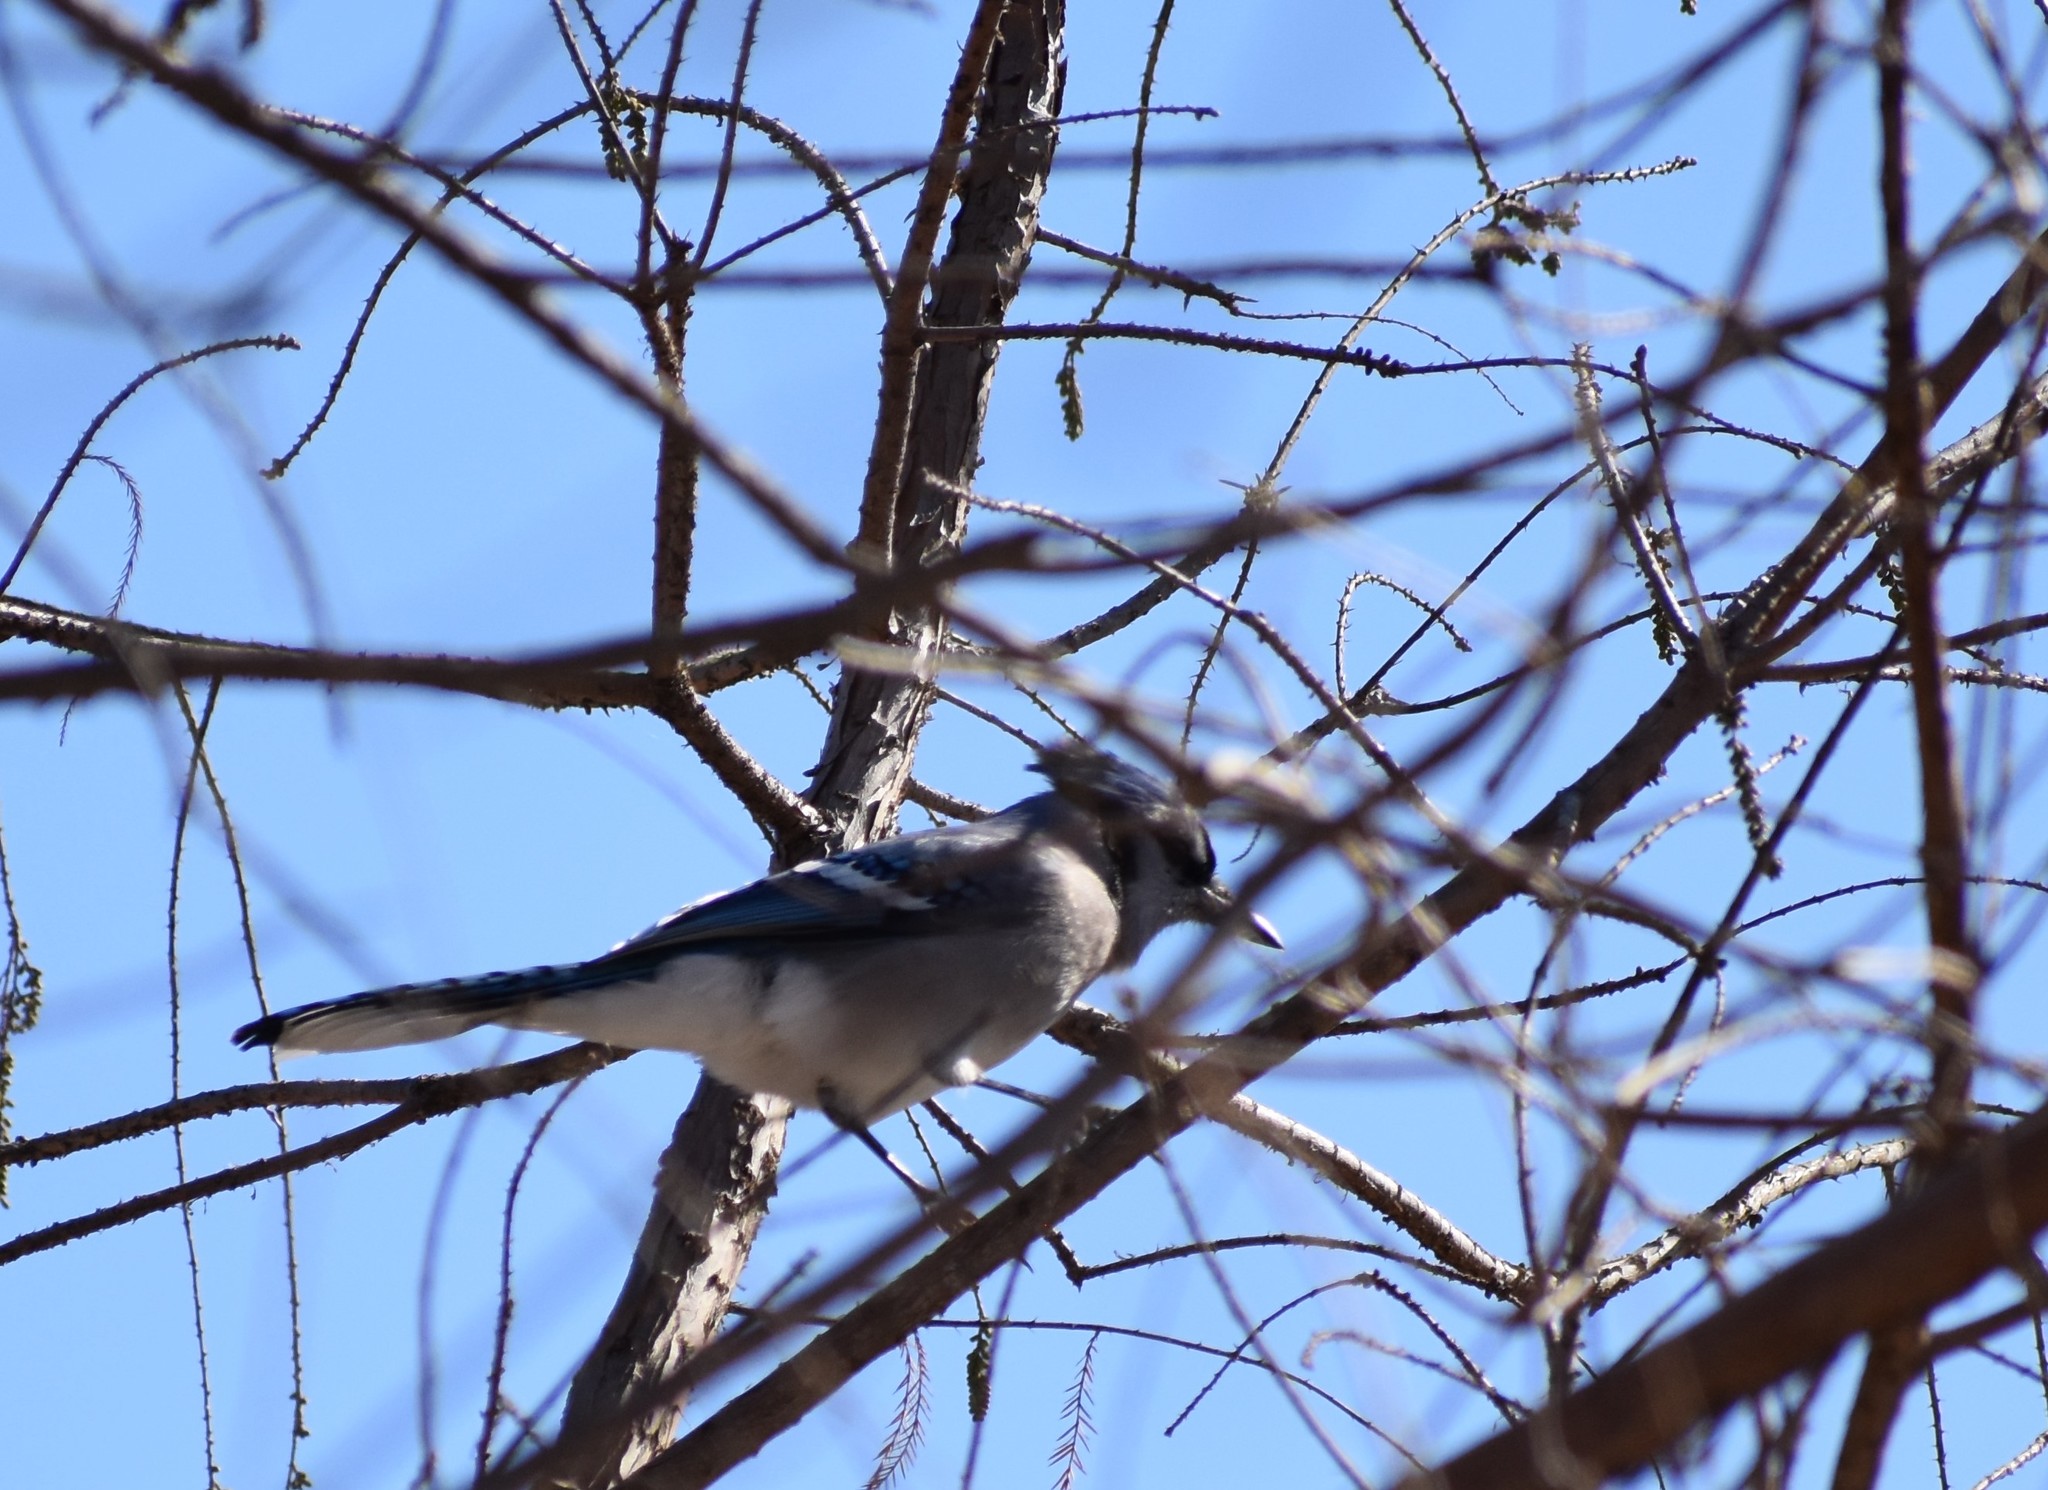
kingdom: Animalia
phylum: Chordata
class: Aves
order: Passeriformes
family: Corvidae
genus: Cyanocitta
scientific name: Cyanocitta cristata
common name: Blue jay
